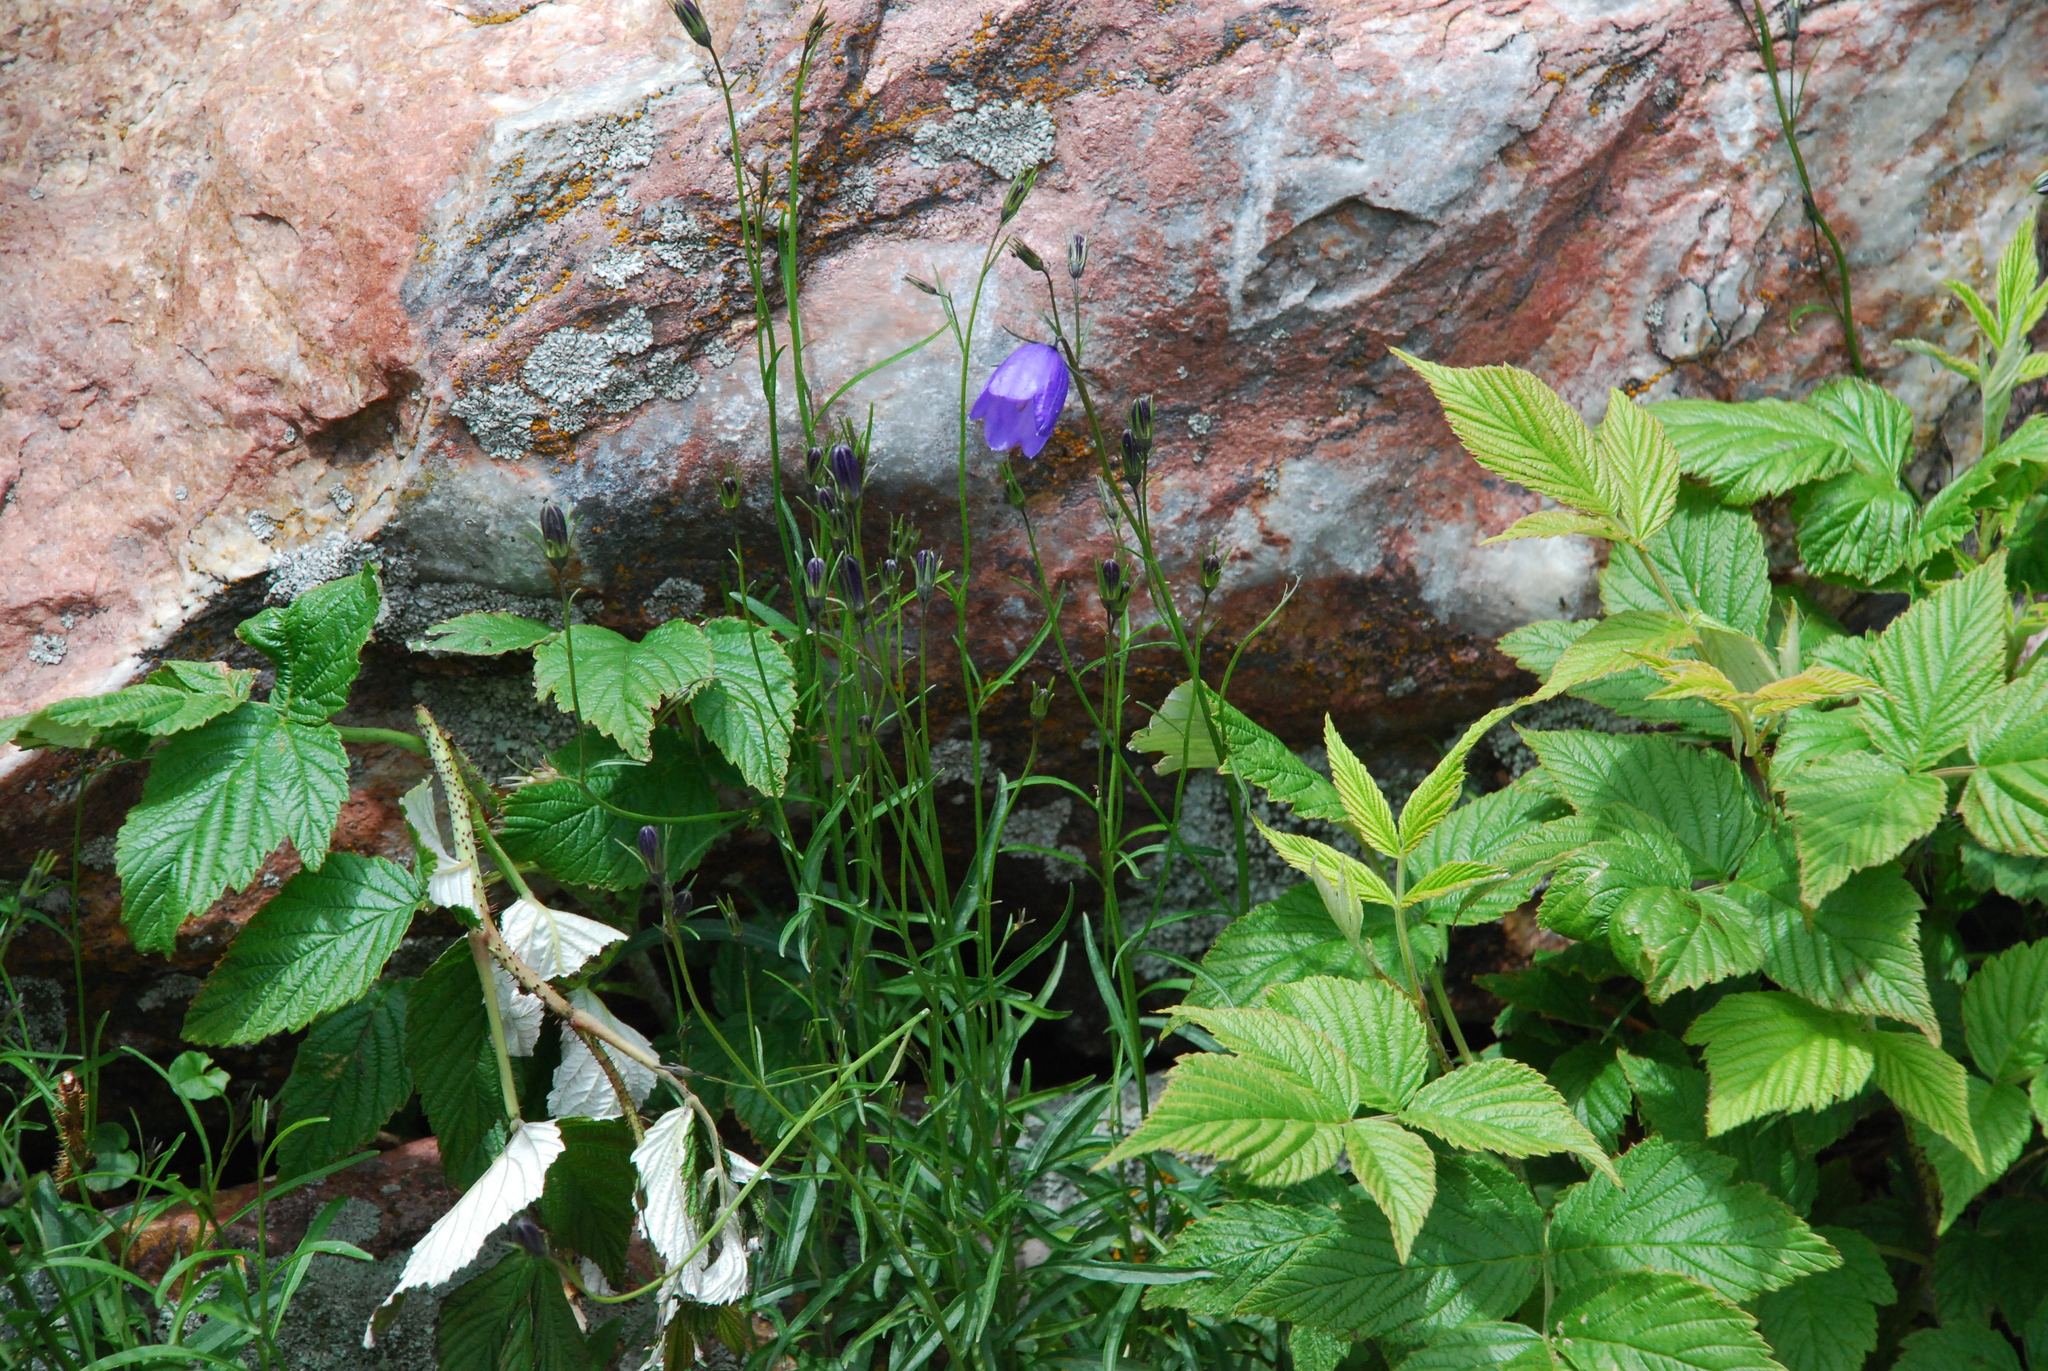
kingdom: Plantae
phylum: Tracheophyta
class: Magnoliopsida
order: Asterales
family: Campanulaceae
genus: Campanula
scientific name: Campanula rotundifolia
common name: Harebell
